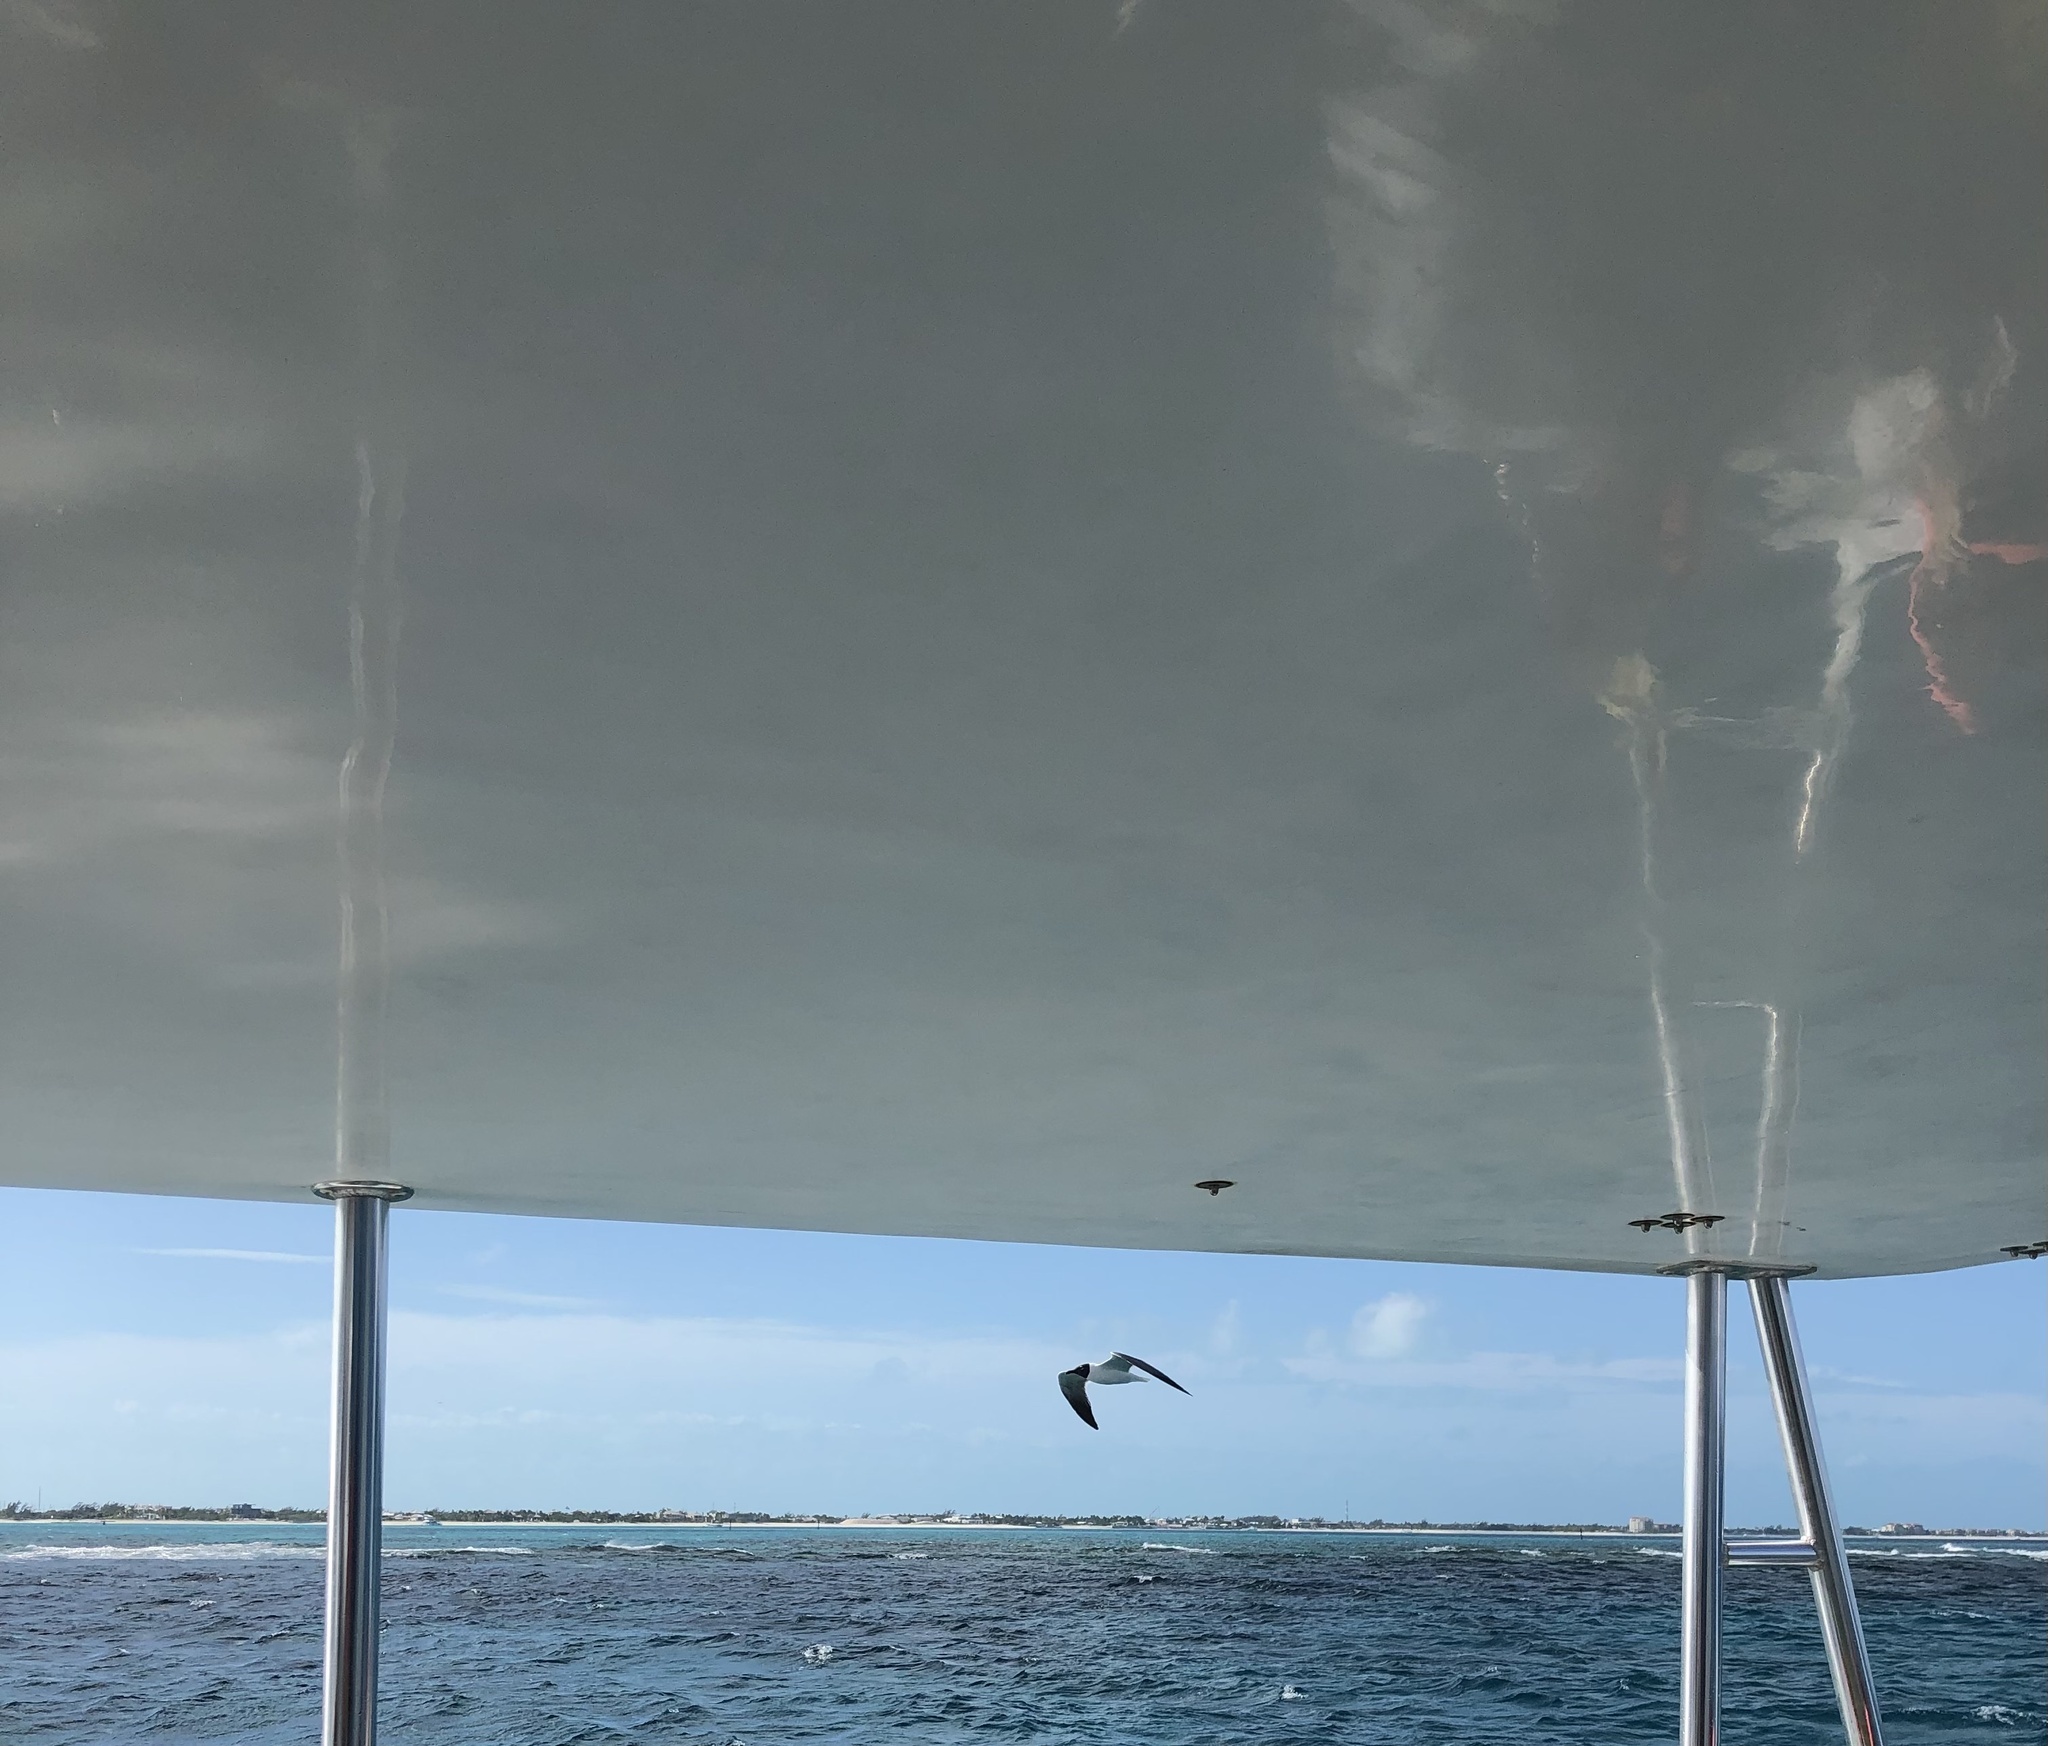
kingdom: Animalia
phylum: Chordata
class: Aves
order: Charadriiformes
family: Laridae
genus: Leucophaeus
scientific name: Leucophaeus atricilla
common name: Laughing gull
